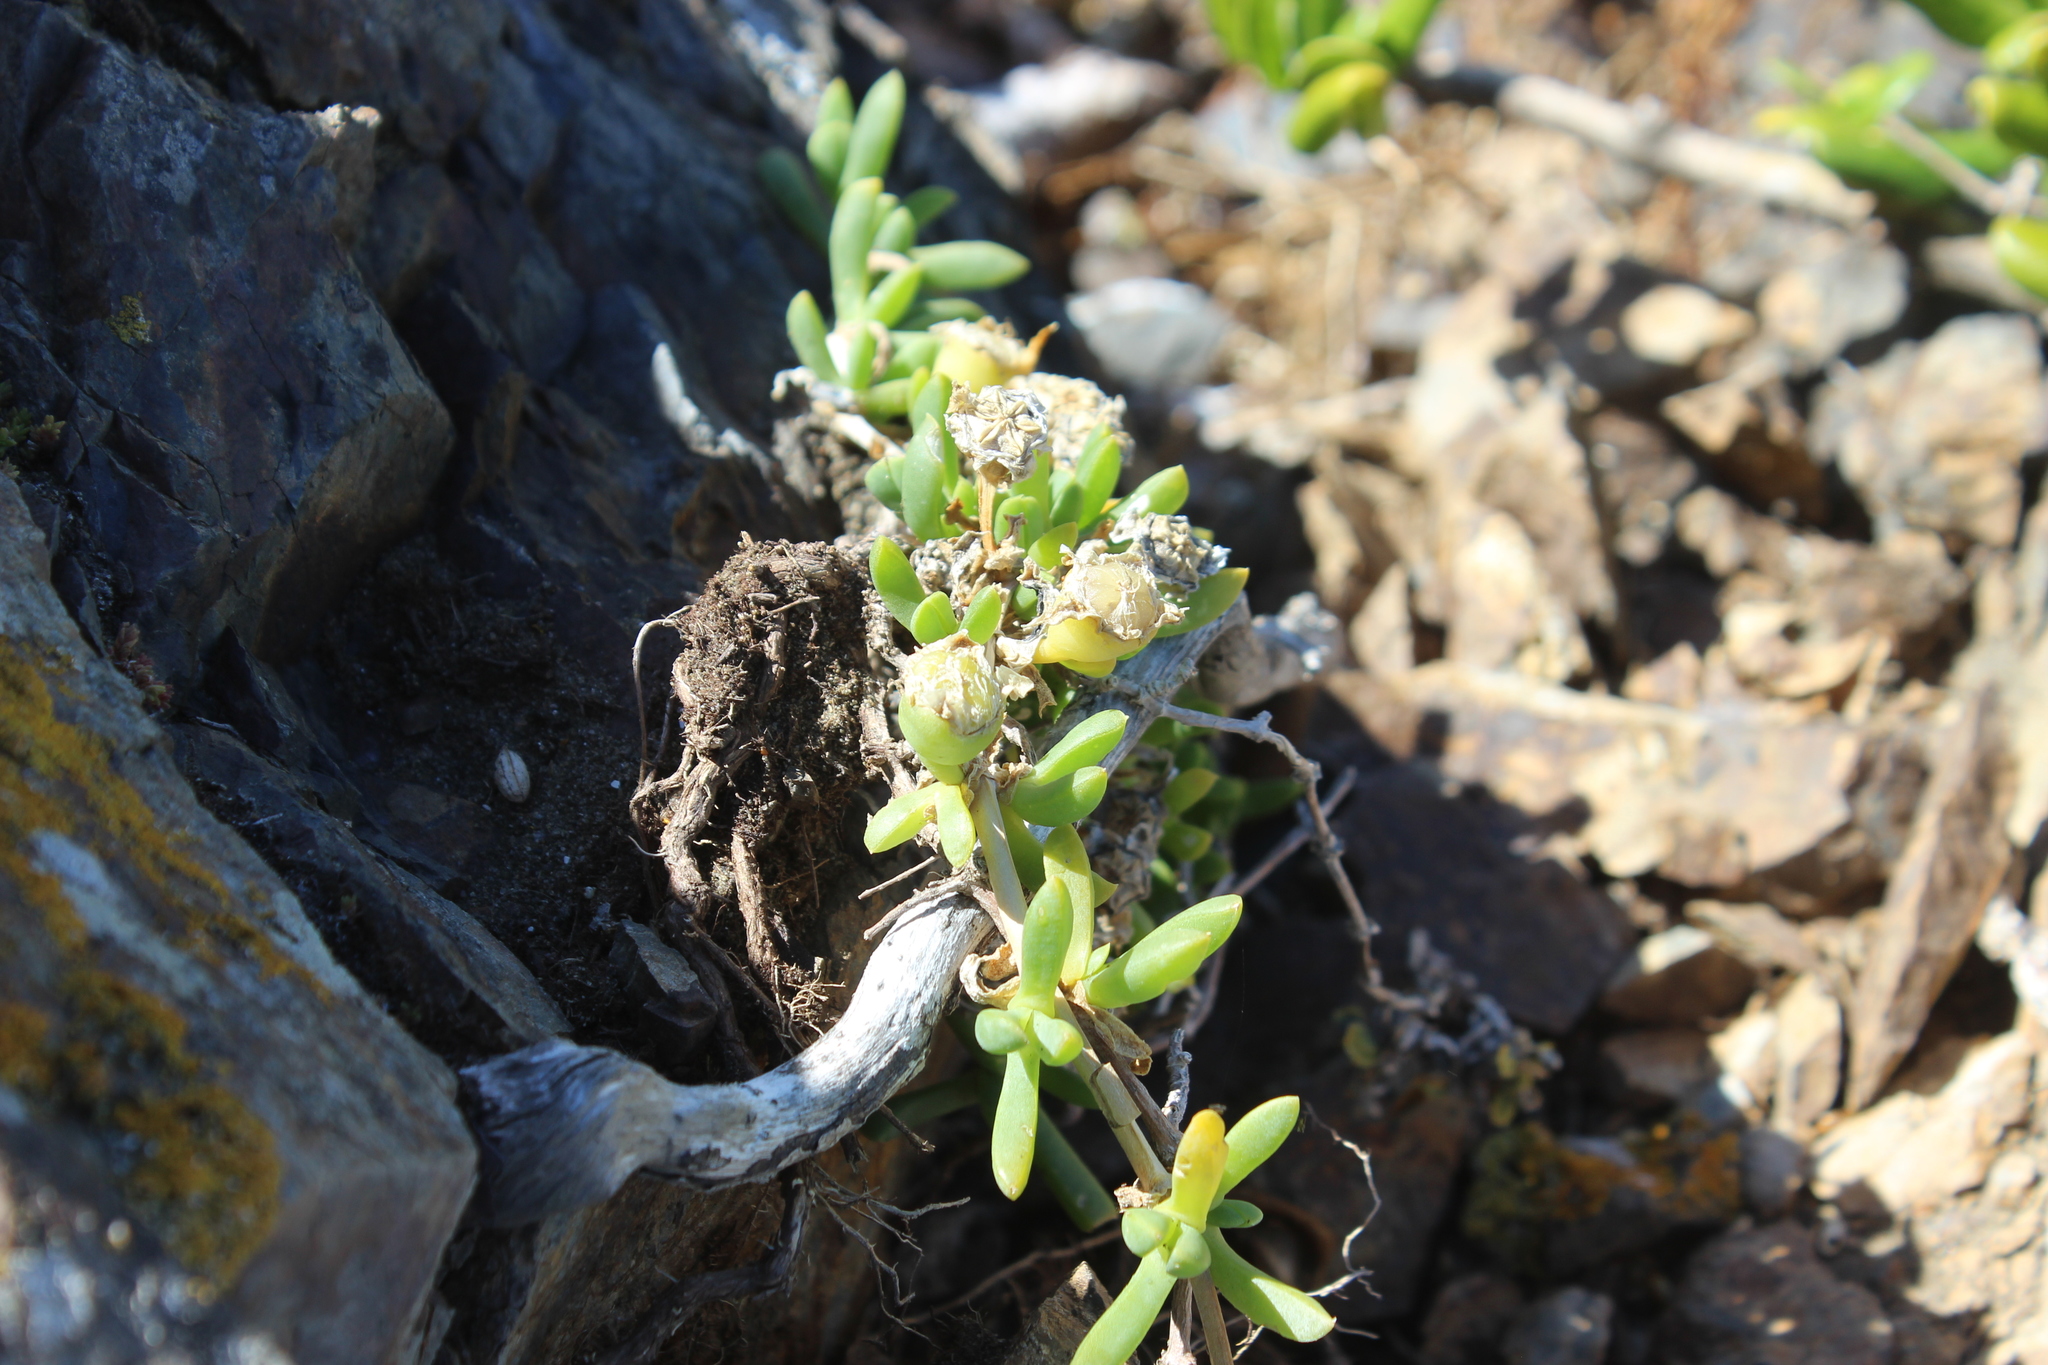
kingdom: Plantae
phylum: Tracheophyta
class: Magnoliopsida
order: Caryophyllales
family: Aizoaceae
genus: Disphyma
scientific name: Disphyma australe
